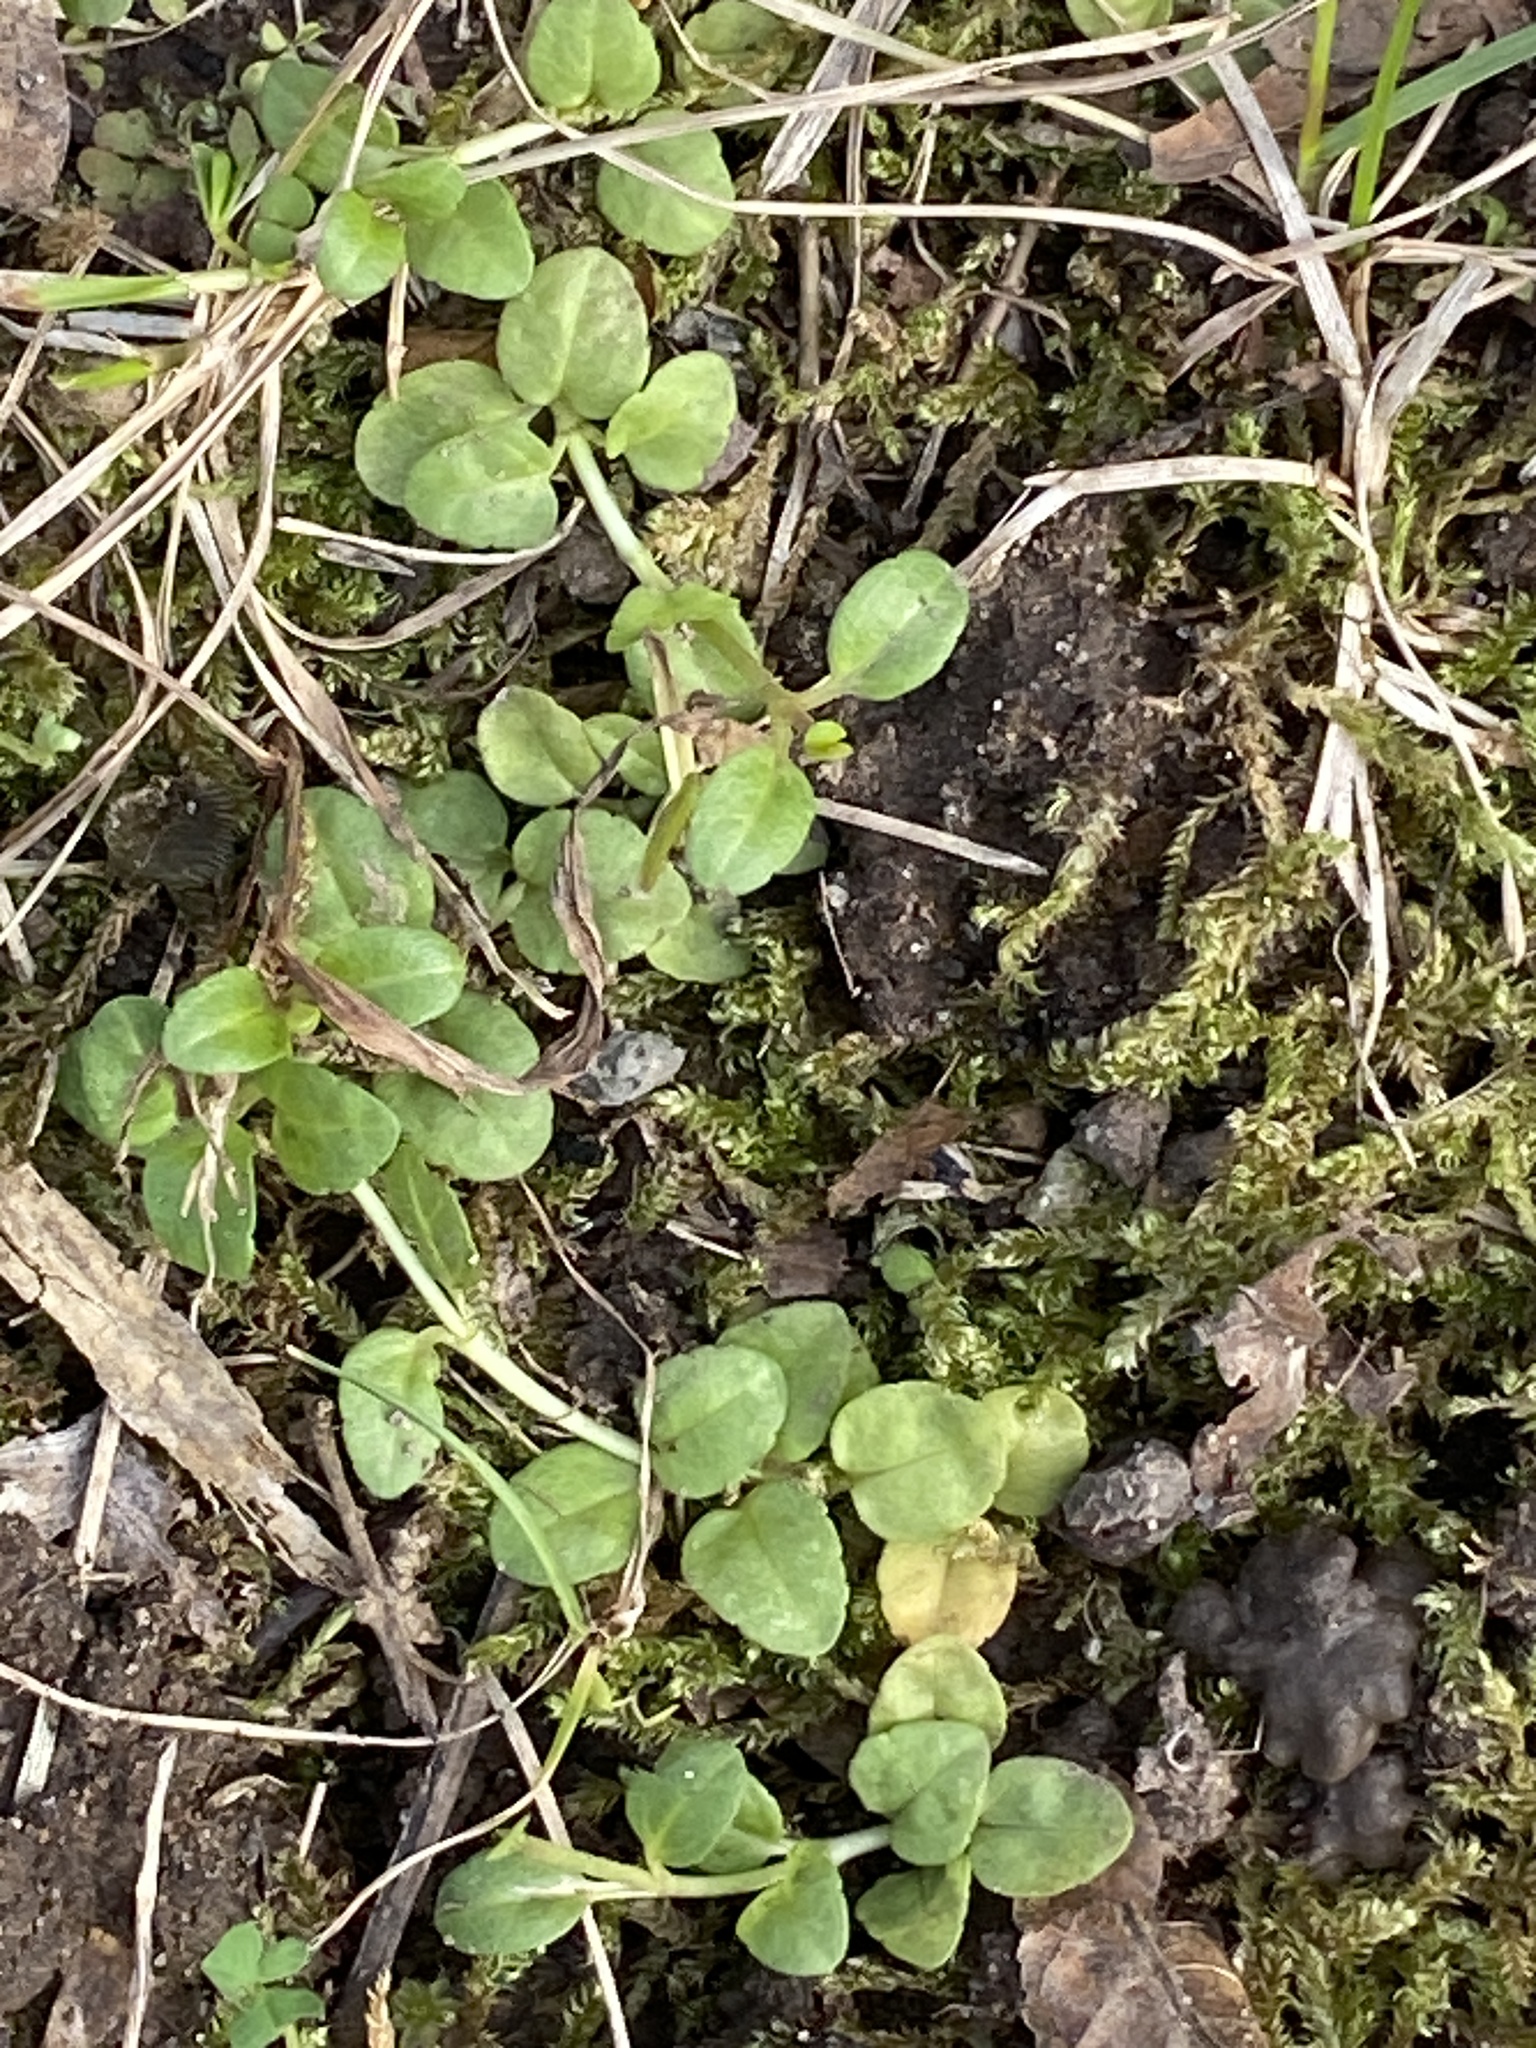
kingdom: Plantae
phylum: Tracheophyta
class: Magnoliopsida
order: Lamiales
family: Plantaginaceae
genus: Veronica
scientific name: Veronica serpyllifolia
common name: Thyme-leaved speedwell
